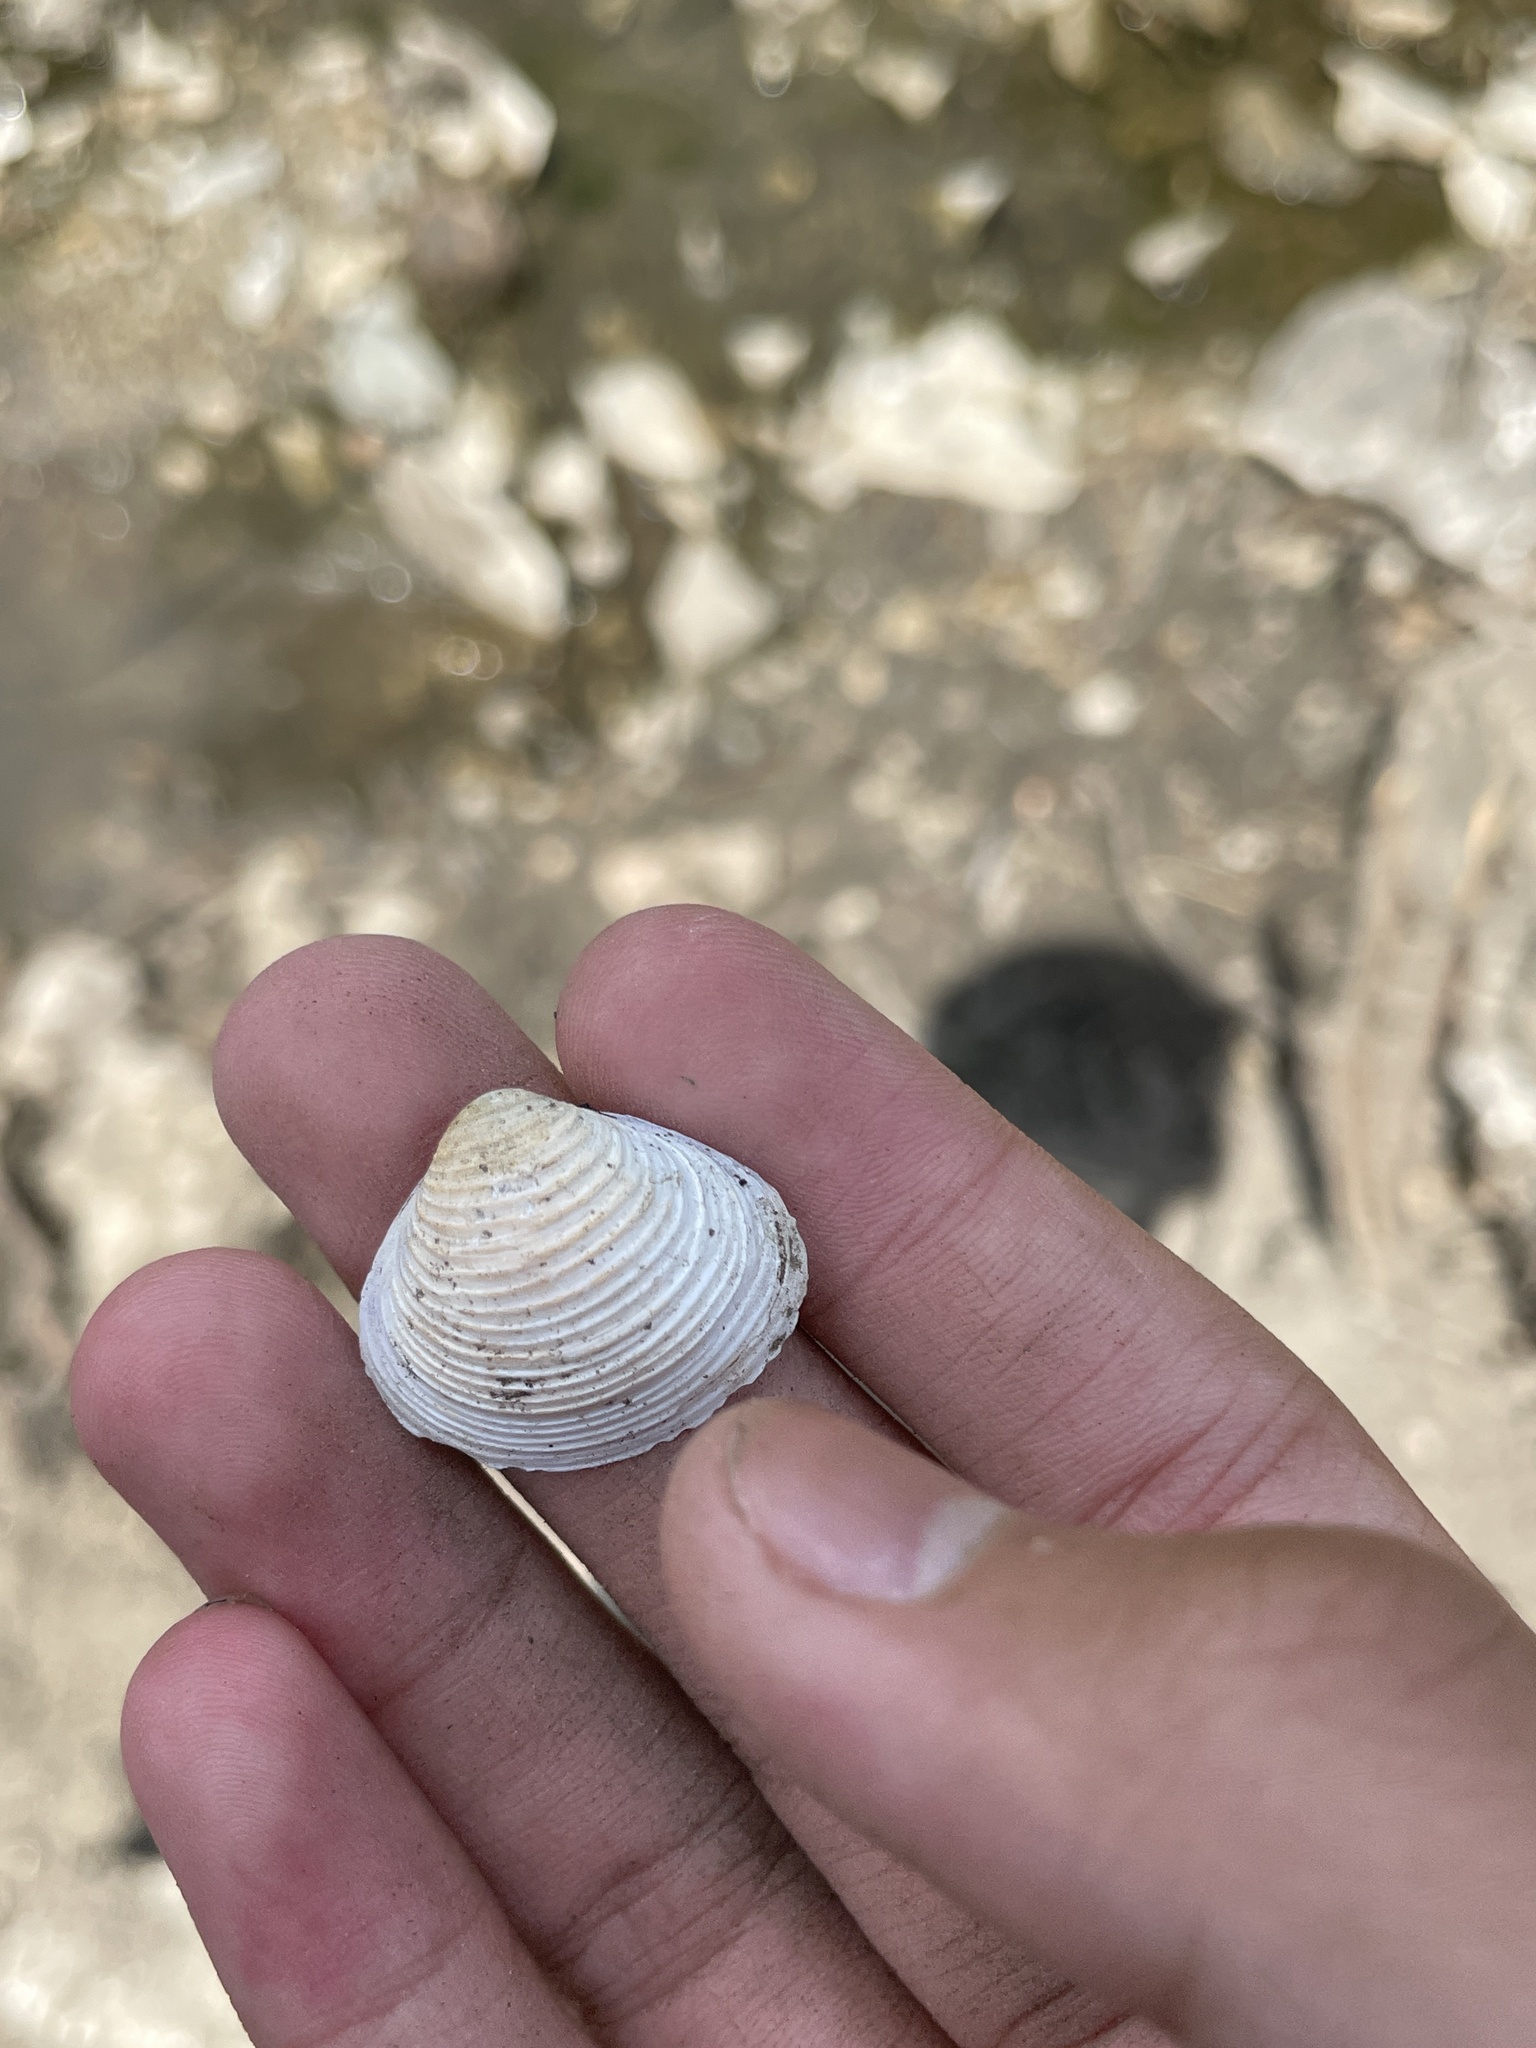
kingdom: Animalia
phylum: Mollusca
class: Bivalvia
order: Venerida
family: Cyrenidae
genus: Corbicula
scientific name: Corbicula fluminea
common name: Asian clam
